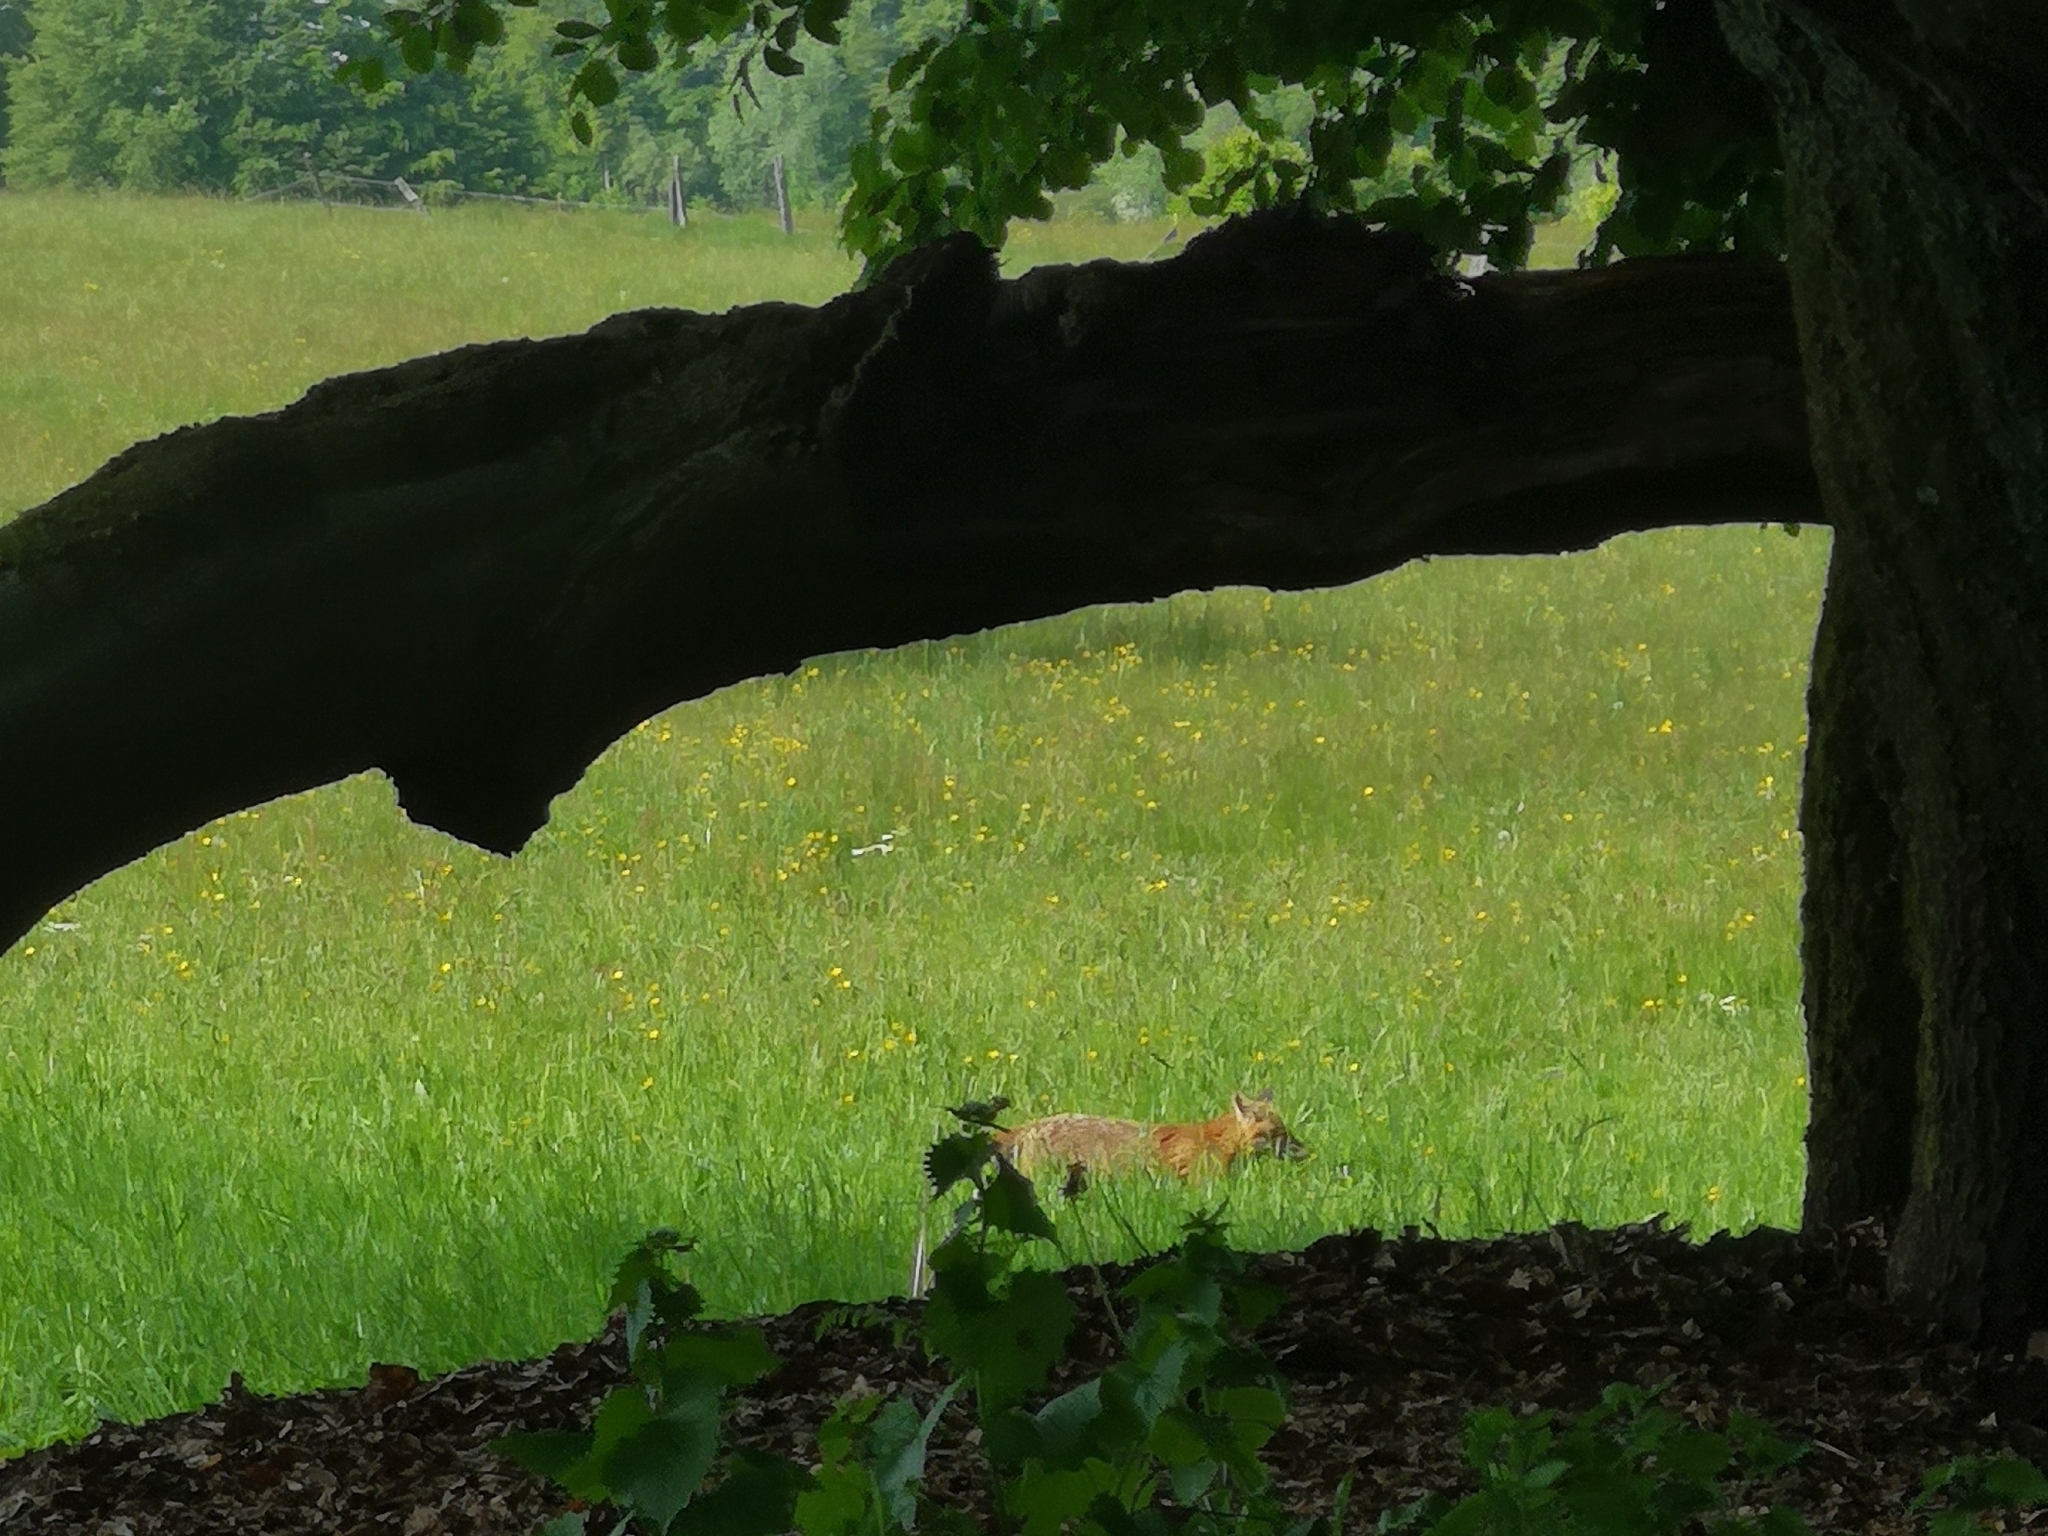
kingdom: Animalia
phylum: Chordata
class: Mammalia
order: Carnivora
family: Canidae
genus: Vulpes
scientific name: Vulpes vulpes
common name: Red fox
